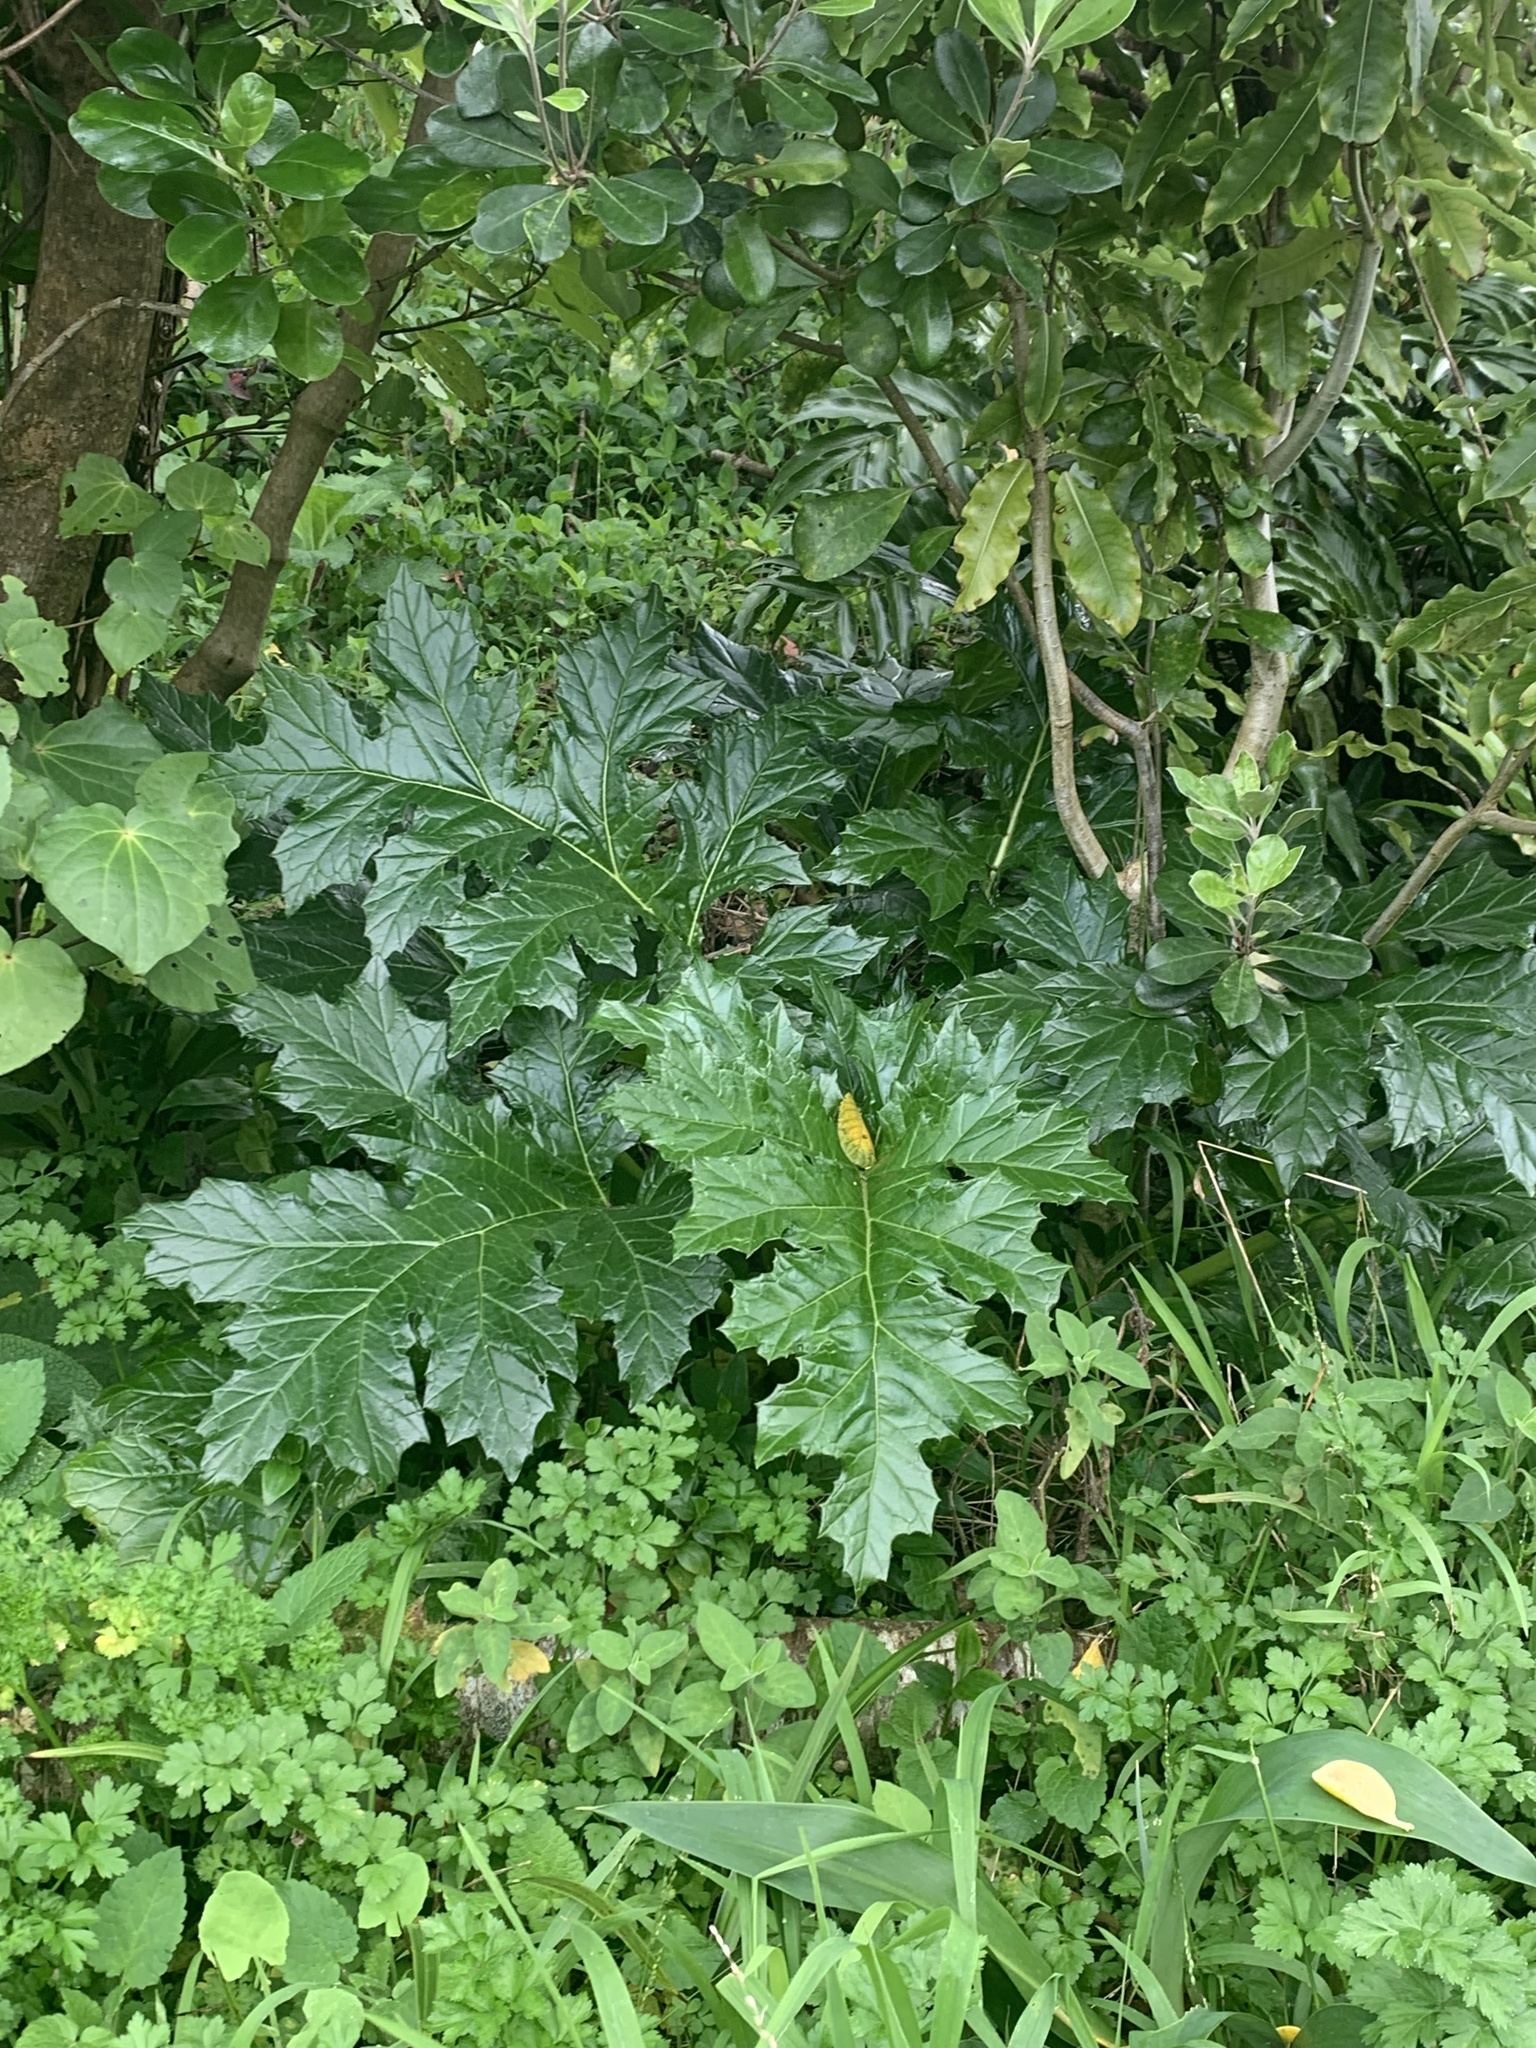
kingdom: Plantae
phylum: Tracheophyta
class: Magnoliopsida
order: Lamiales
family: Acanthaceae
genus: Acanthus
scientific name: Acanthus mollis
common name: Bear's-breech
